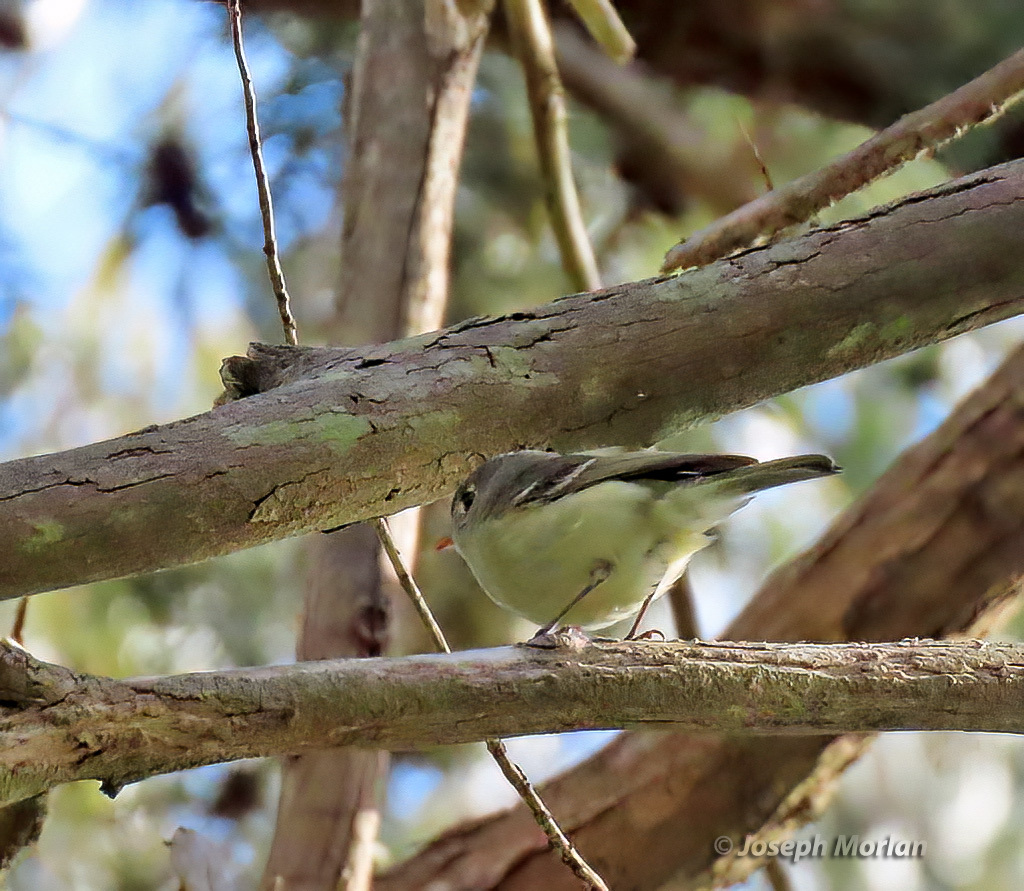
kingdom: Animalia
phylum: Chordata
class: Aves
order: Passeriformes
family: Vireonidae
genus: Vireo
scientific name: Vireo huttoni
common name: Hutton's vireo
